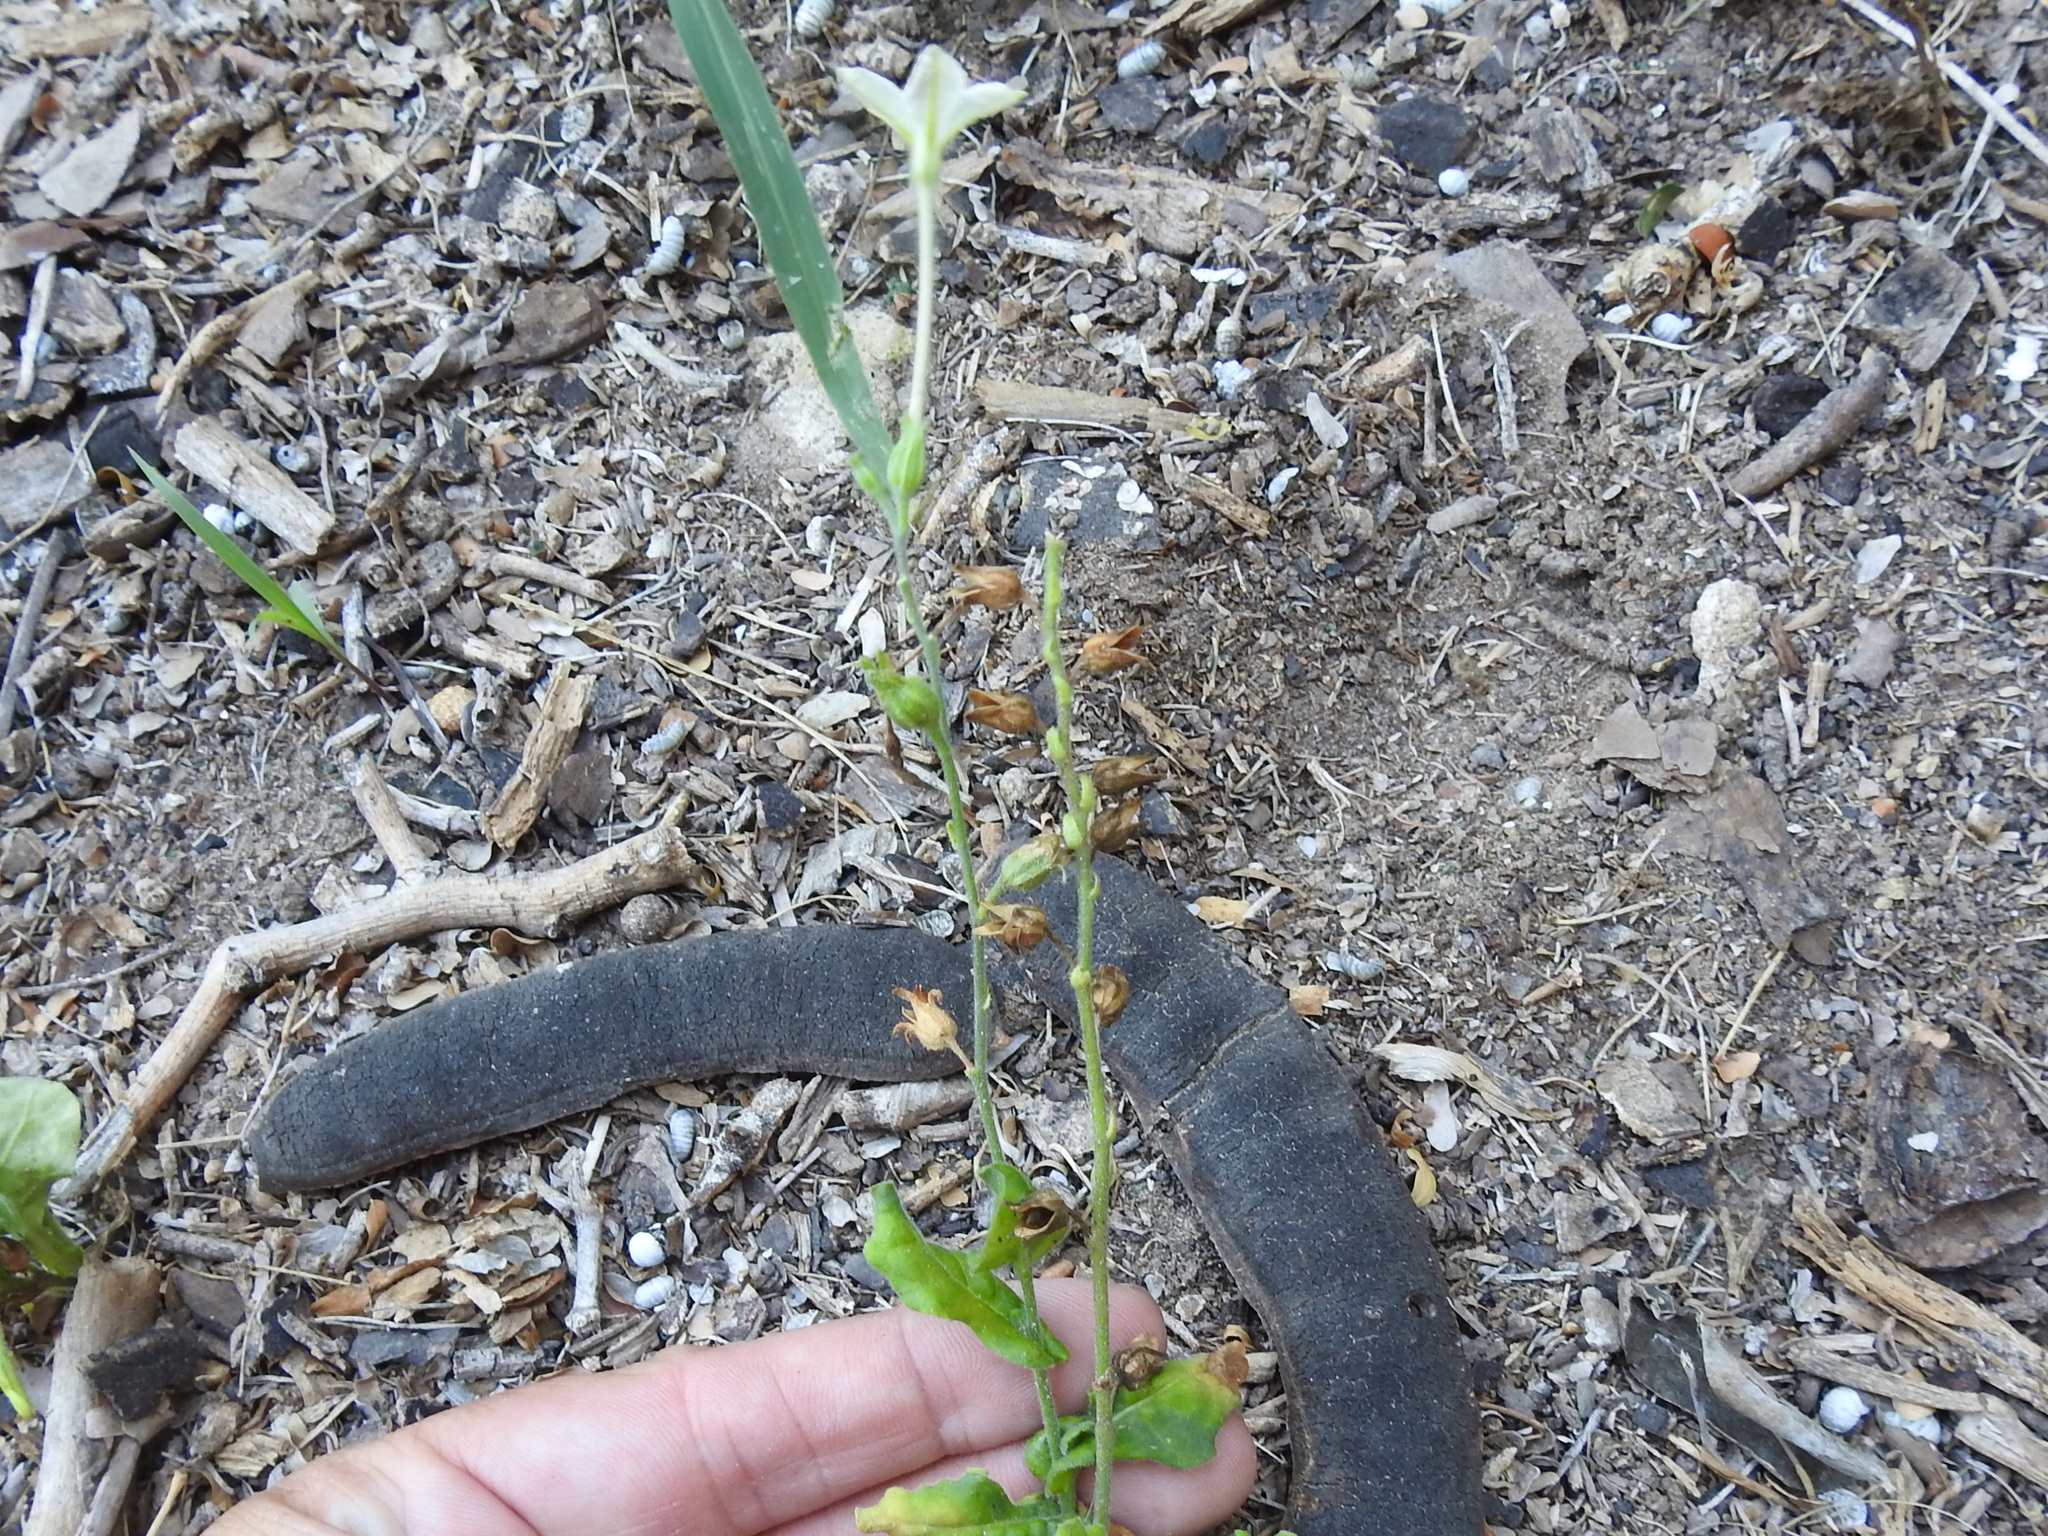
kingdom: Plantae
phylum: Tracheophyta
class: Magnoliopsida
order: Solanales
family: Solanaceae
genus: Nicotiana
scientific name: Nicotiana repanda
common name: Fiddle-leaf tobacco
